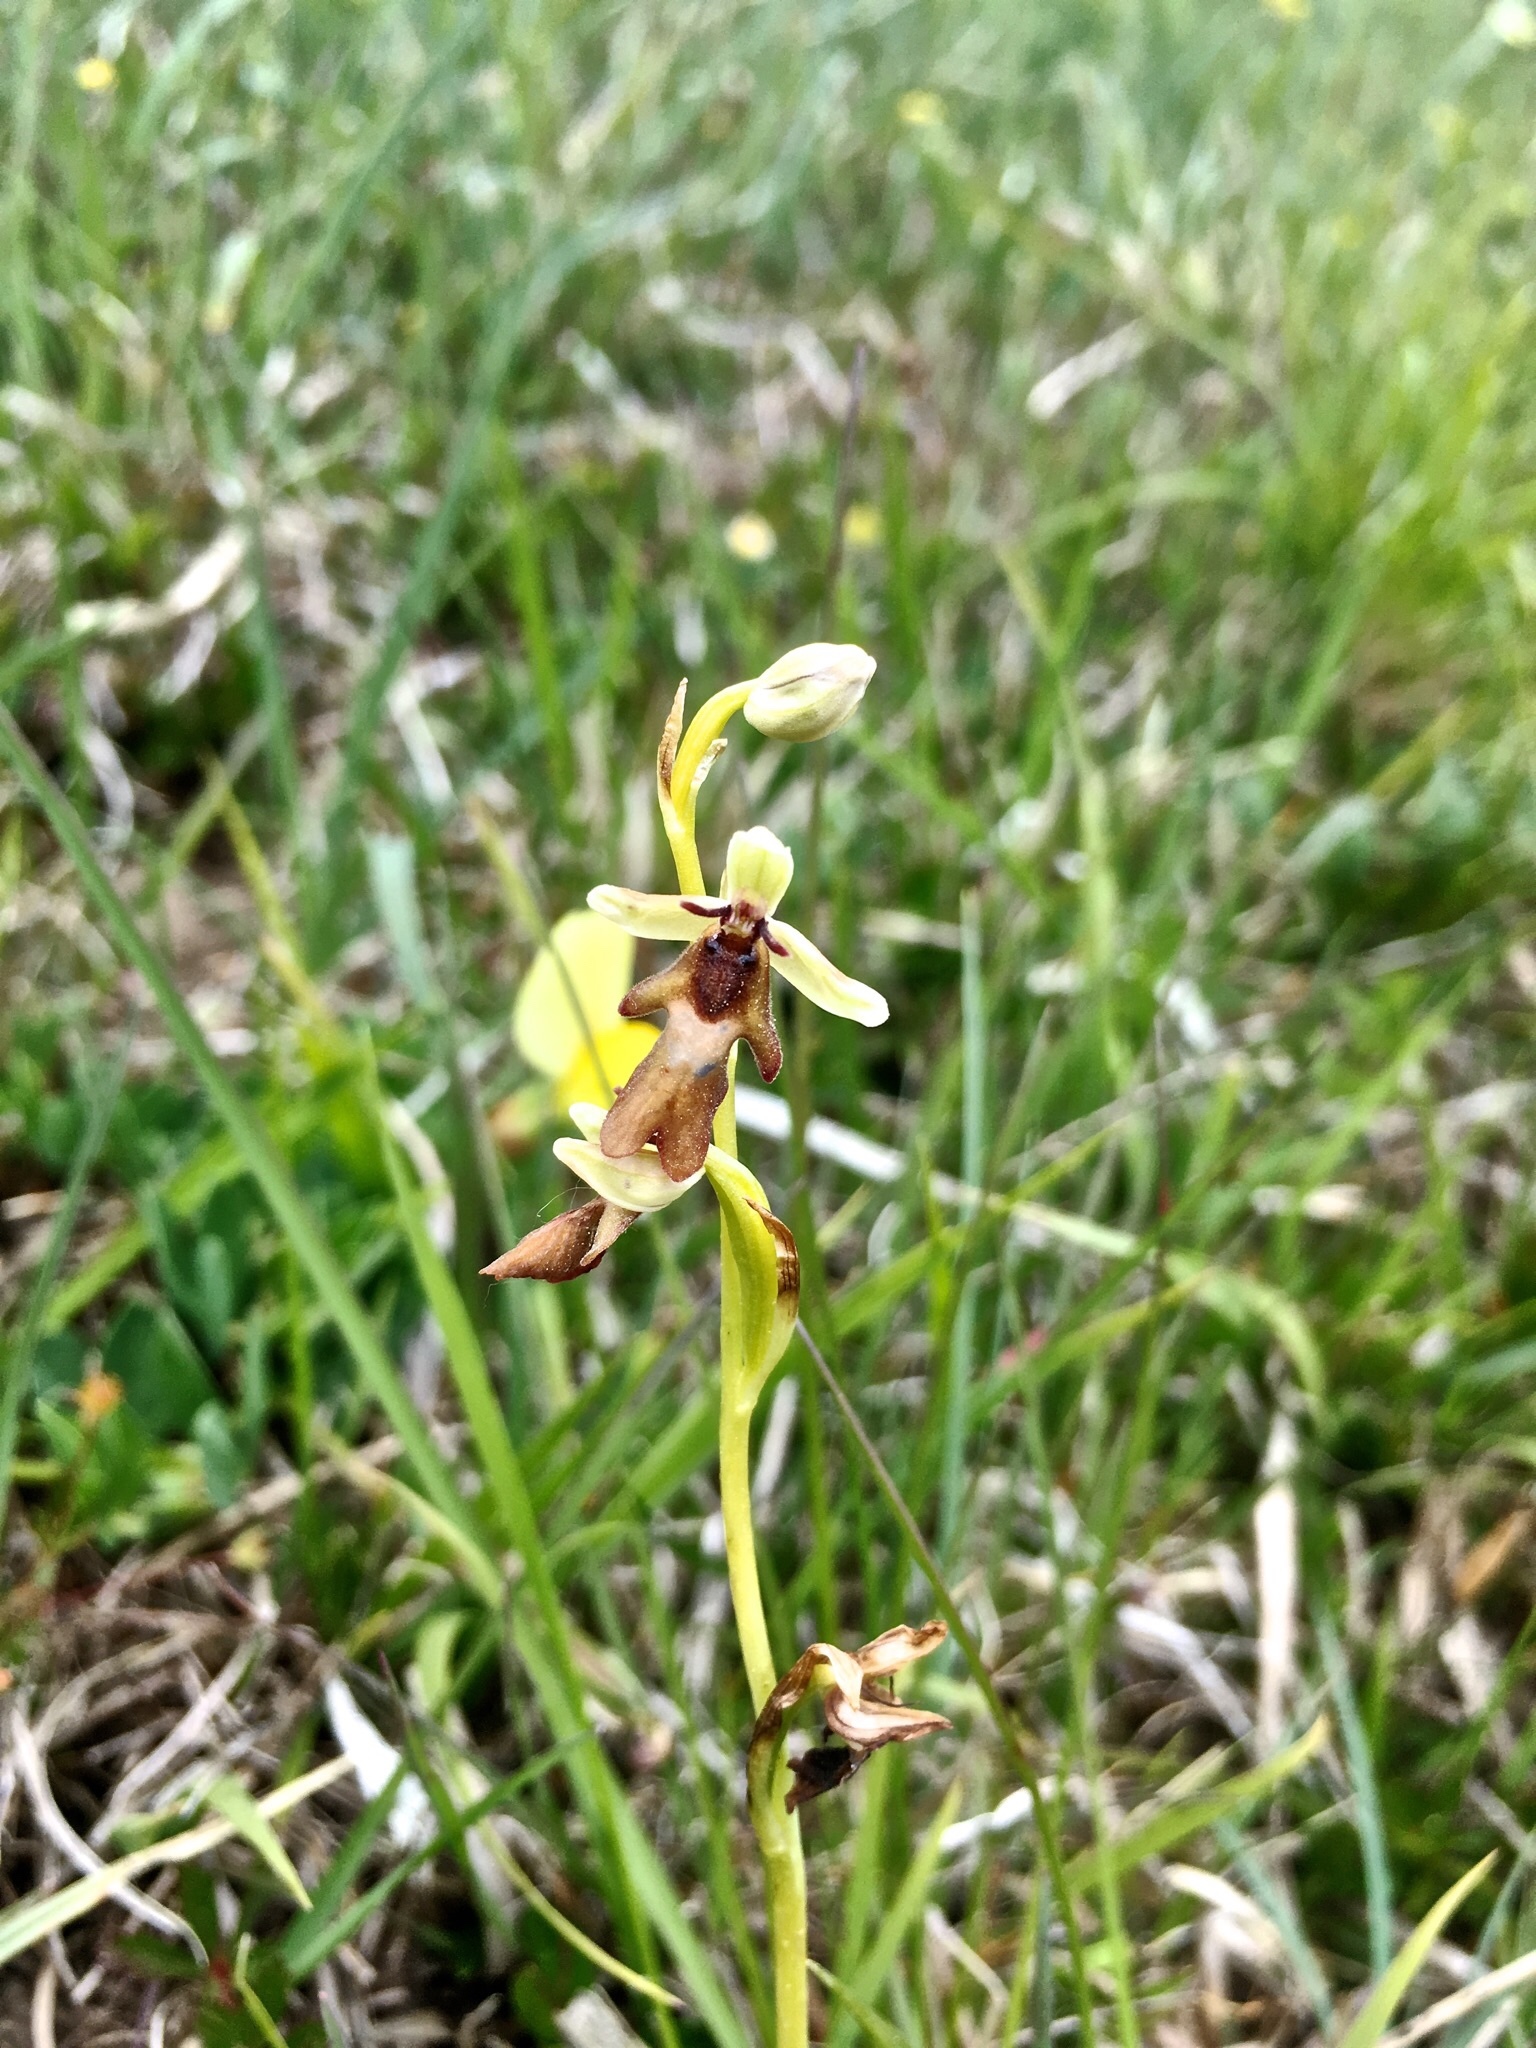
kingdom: Plantae
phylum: Tracheophyta
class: Liliopsida
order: Asparagales
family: Orchidaceae
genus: Ophrys
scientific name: Ophrys insectifera
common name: Fly orchid
